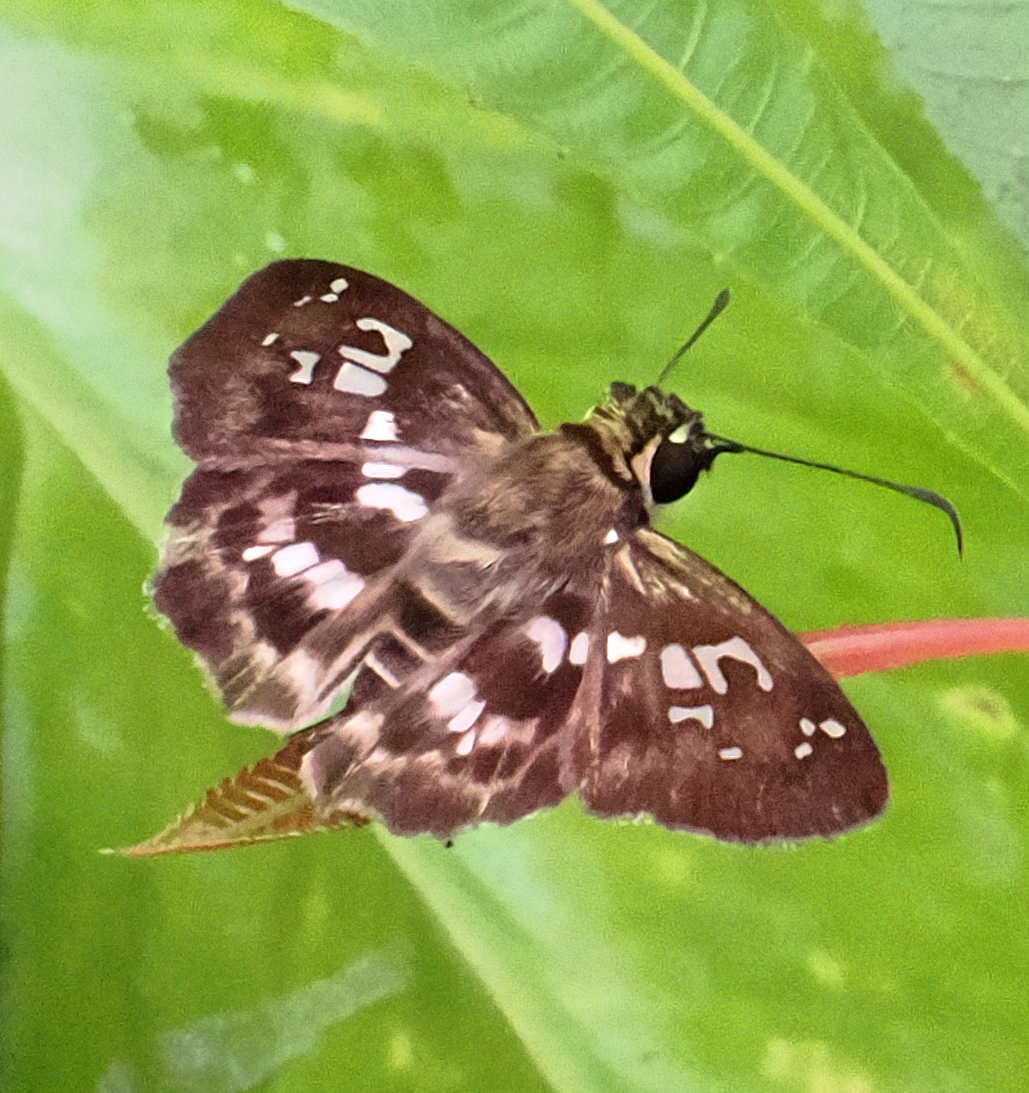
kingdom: Animalia
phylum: Arthropoda
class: Insecta
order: Lepidoptera
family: Hesperiidae
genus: Udranomia
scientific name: Udranomia kikkawai
